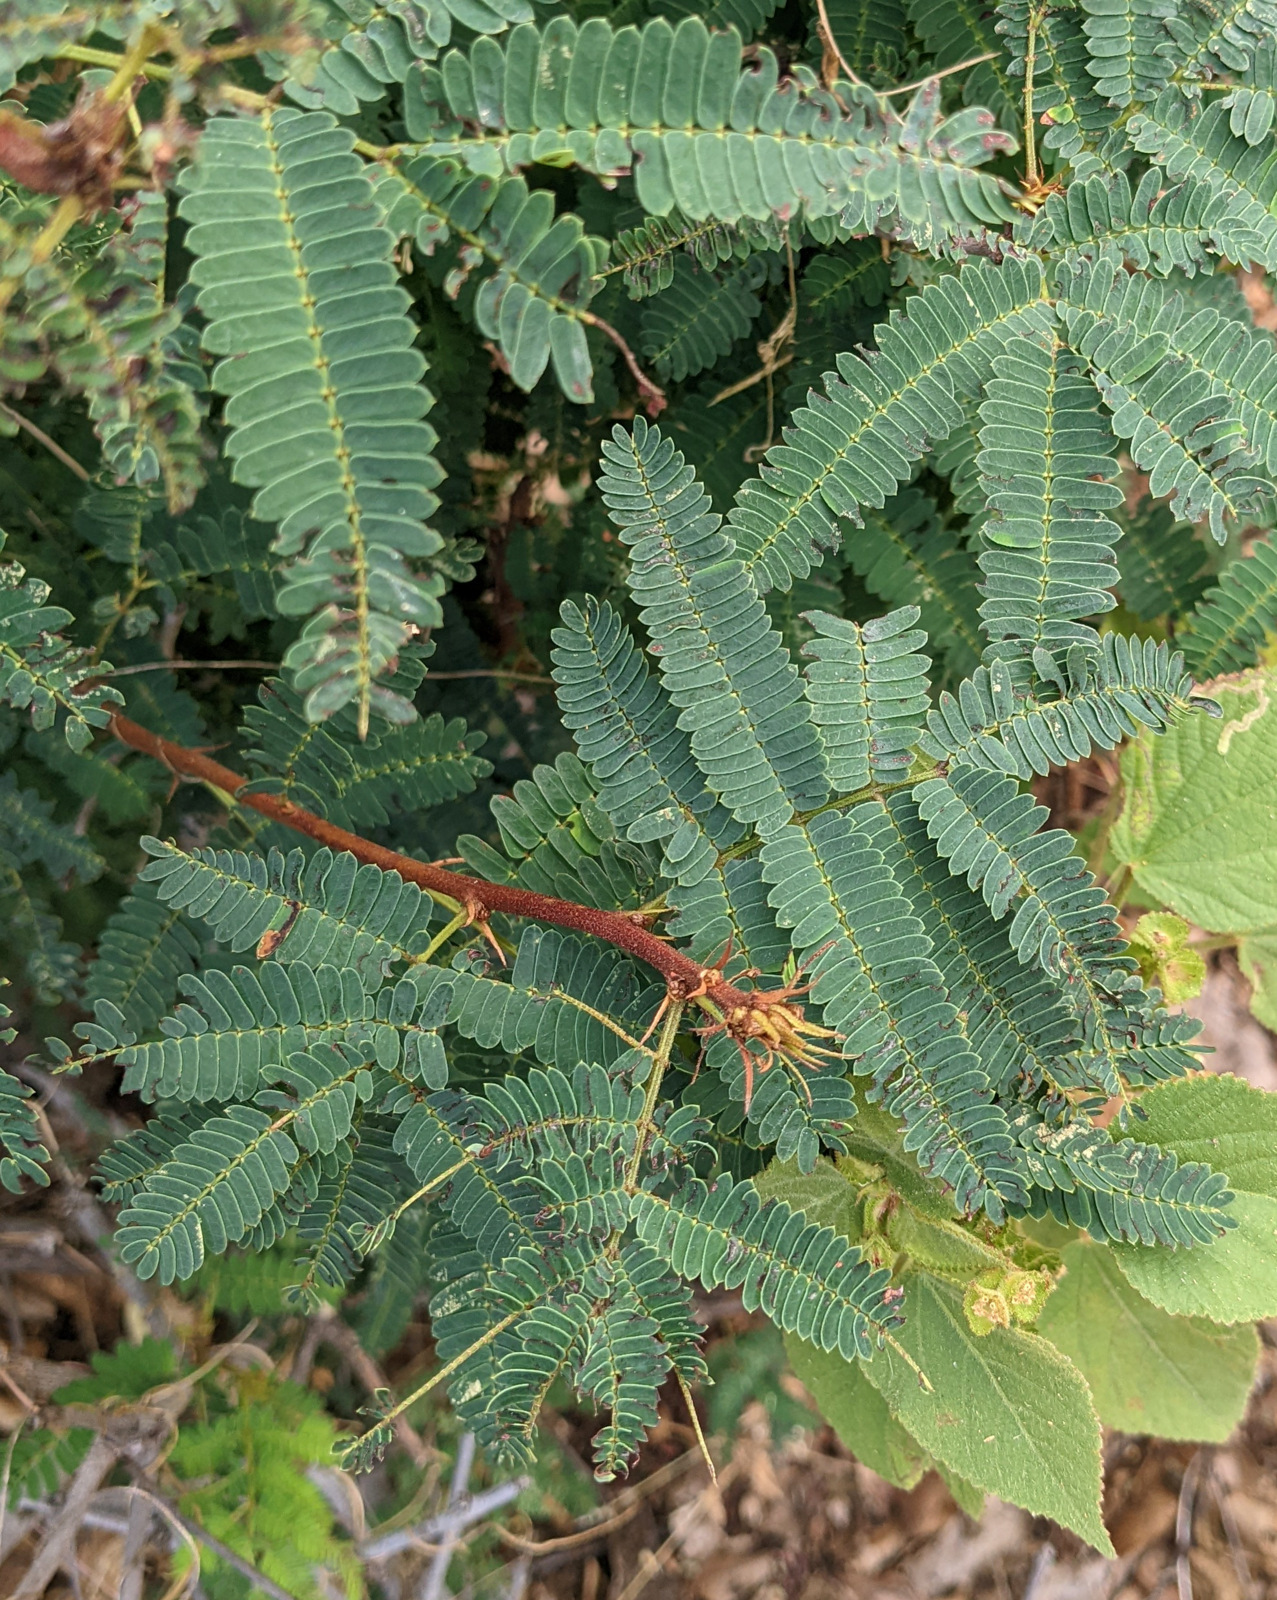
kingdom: Plantae
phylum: Tracheophyta
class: Magnoliopsida
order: Fabales
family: Fabaceae
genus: Calliandra
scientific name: Calliandra peninsularis
